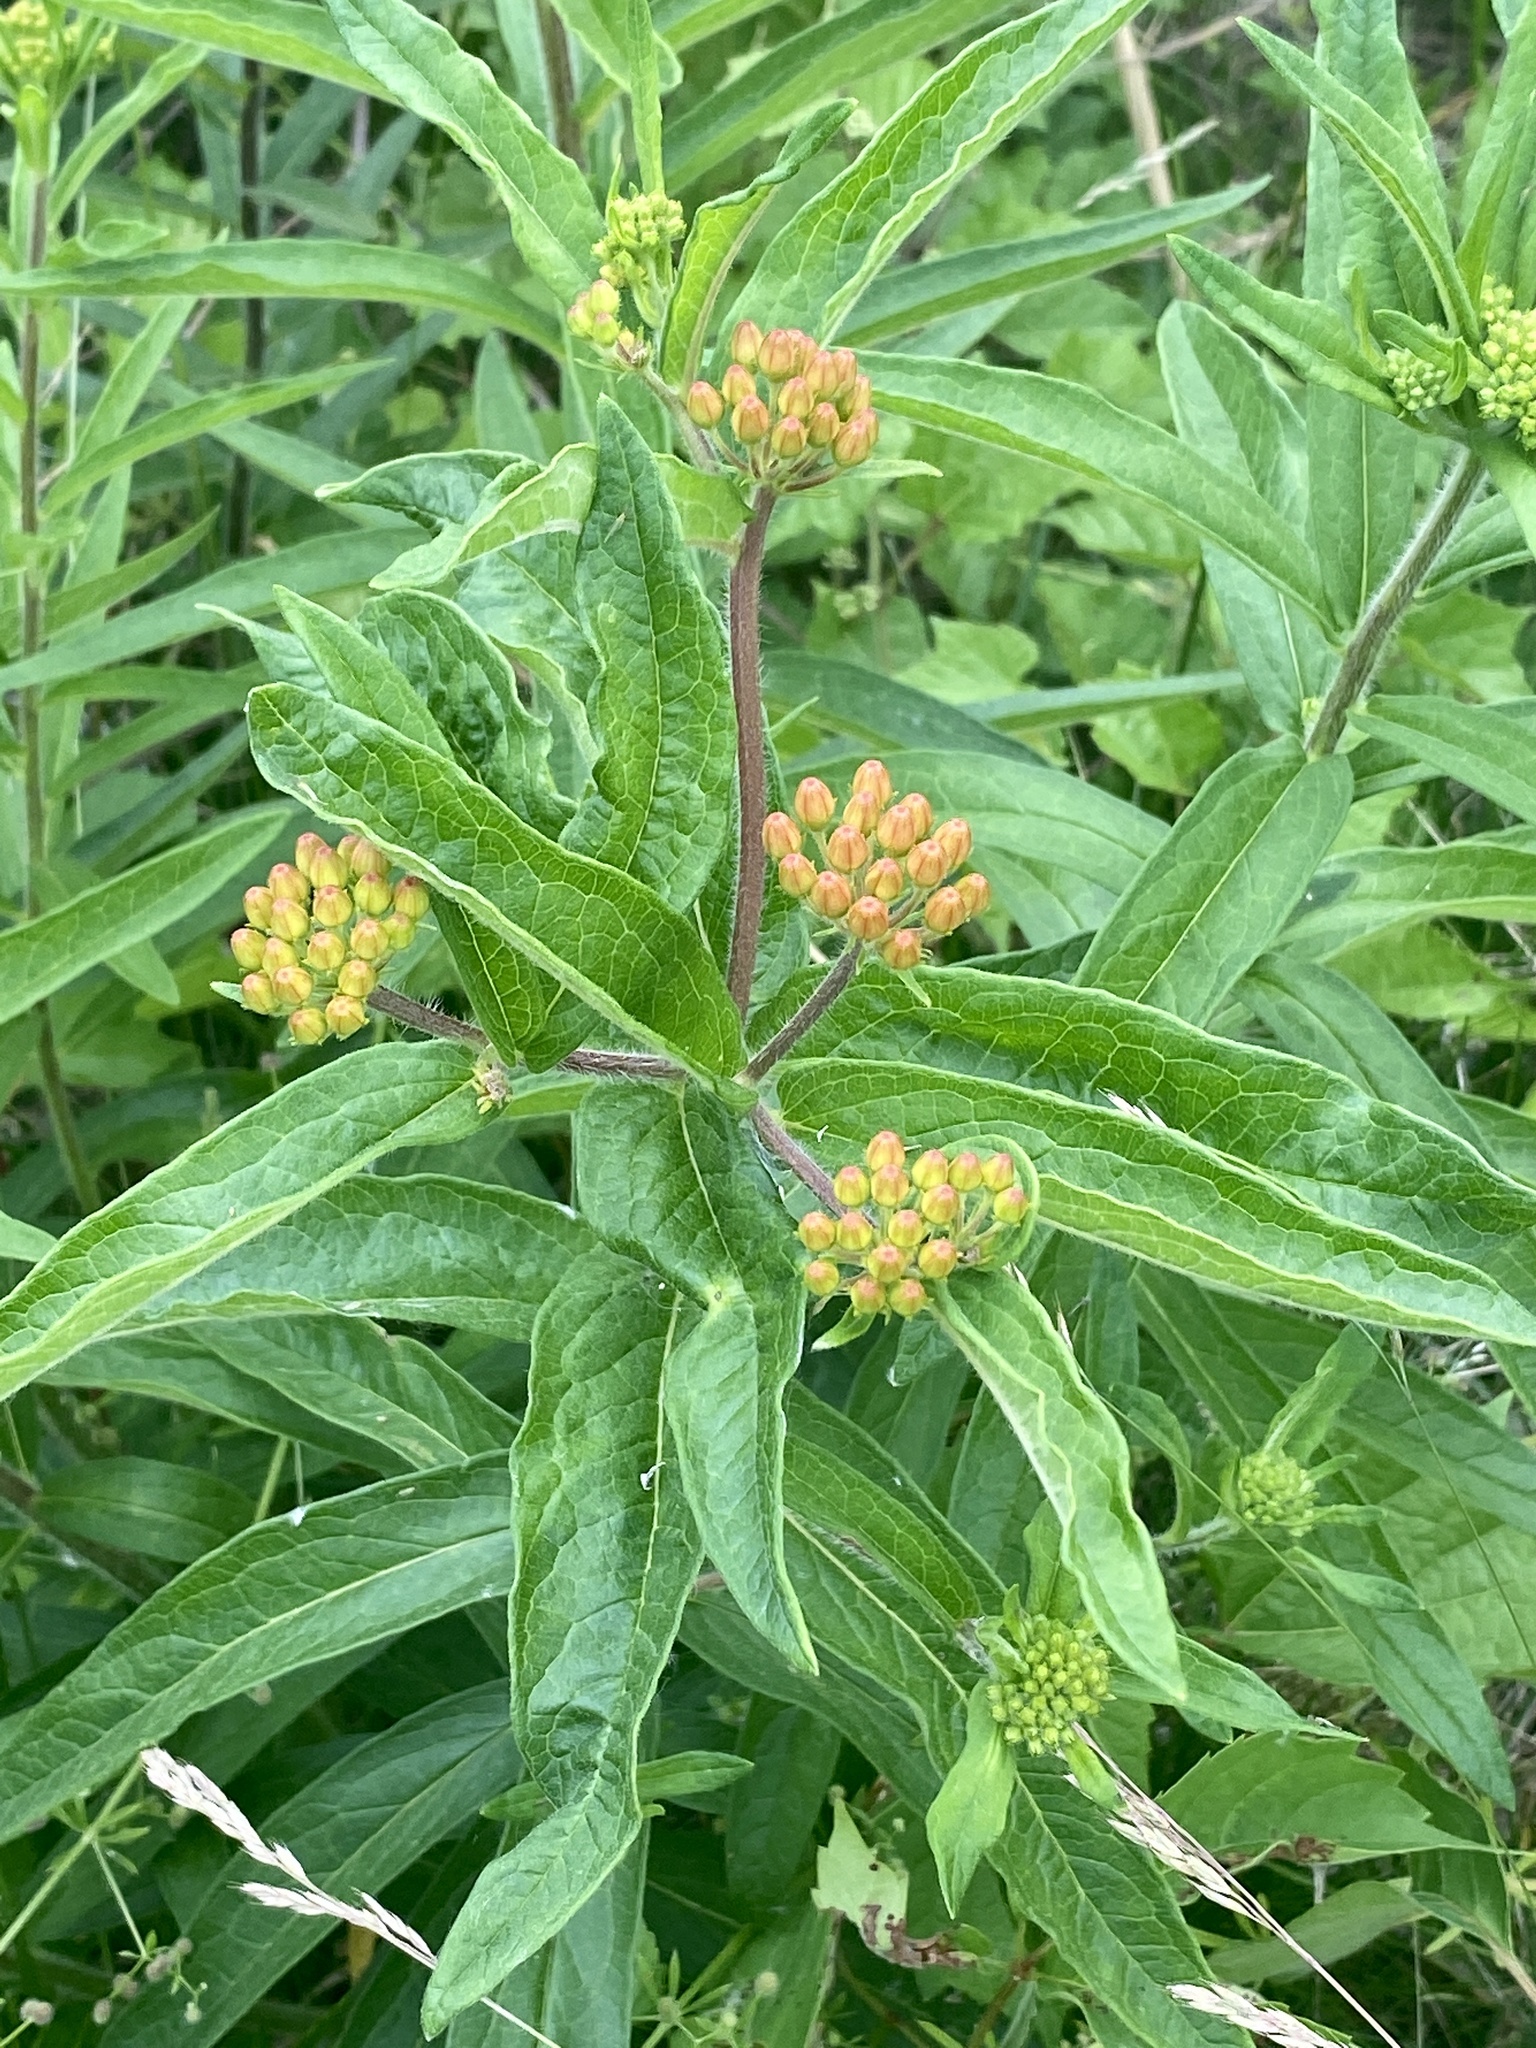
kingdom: Plantae
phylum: Tracheophyta
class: Magnoliopsida
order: Gentianales
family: Apocynaceae
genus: Asclepias
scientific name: Asclepias tuberosa
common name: Butterfly milkweed
